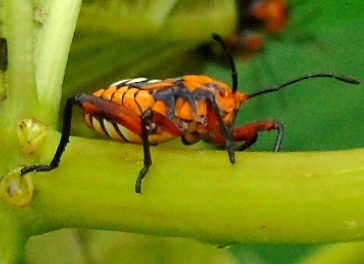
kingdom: Animalia
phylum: Arthropoda
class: Insecta
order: Hemiptera
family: Coreidae
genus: Sagotylus
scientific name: Sagotylus confluens
